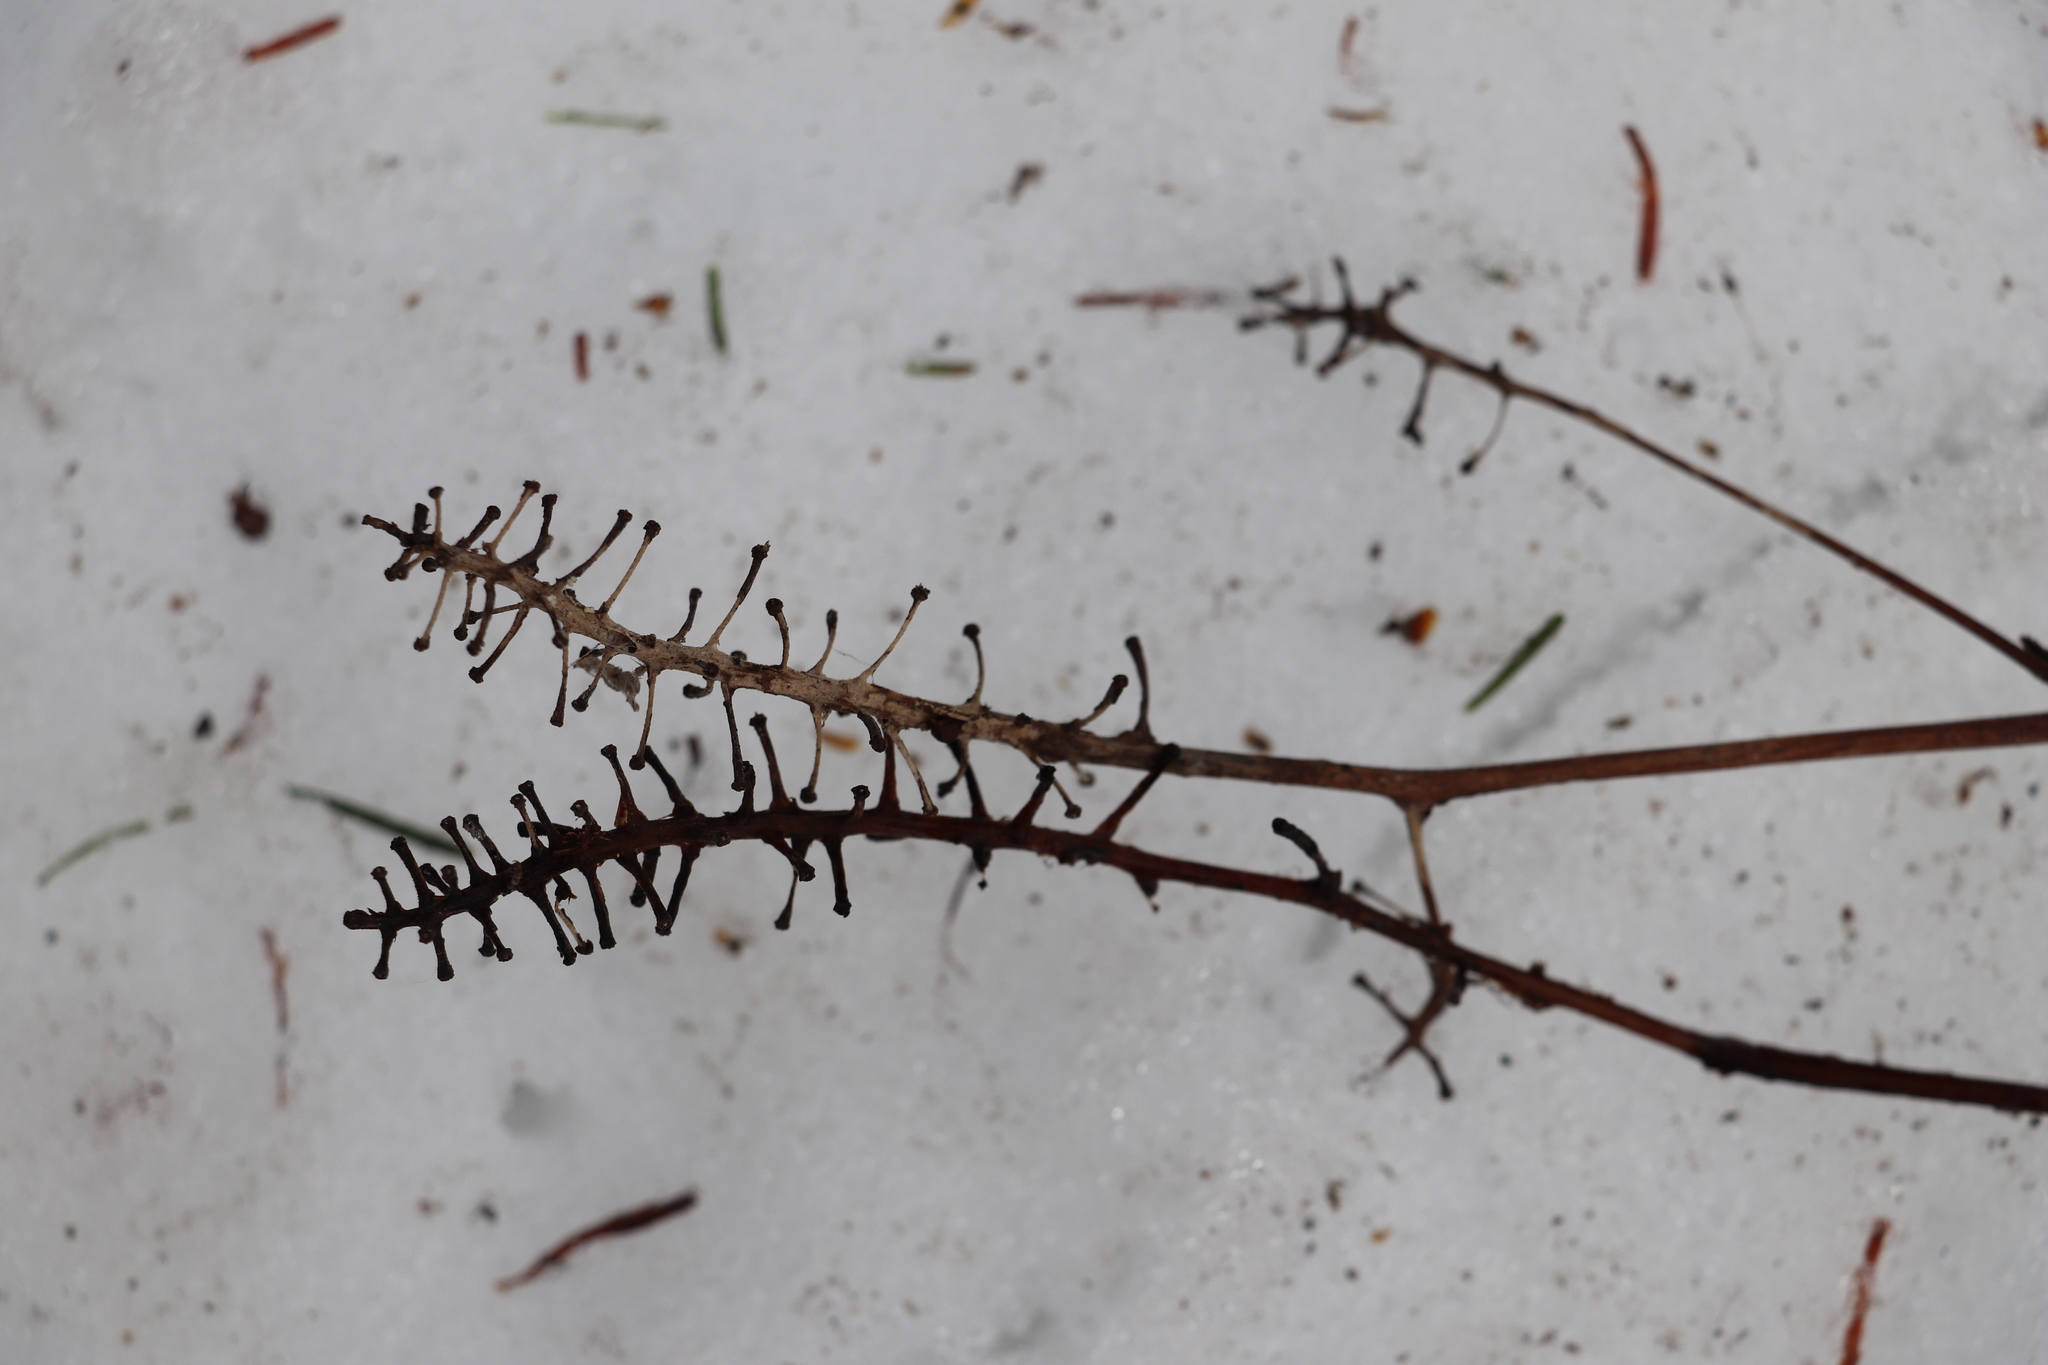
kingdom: Plantae
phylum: Tracheophyta
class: Magnoliopsida
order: Ranunculales
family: Ranunculaceae
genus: Actaea
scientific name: Actaea erythrocarpa
